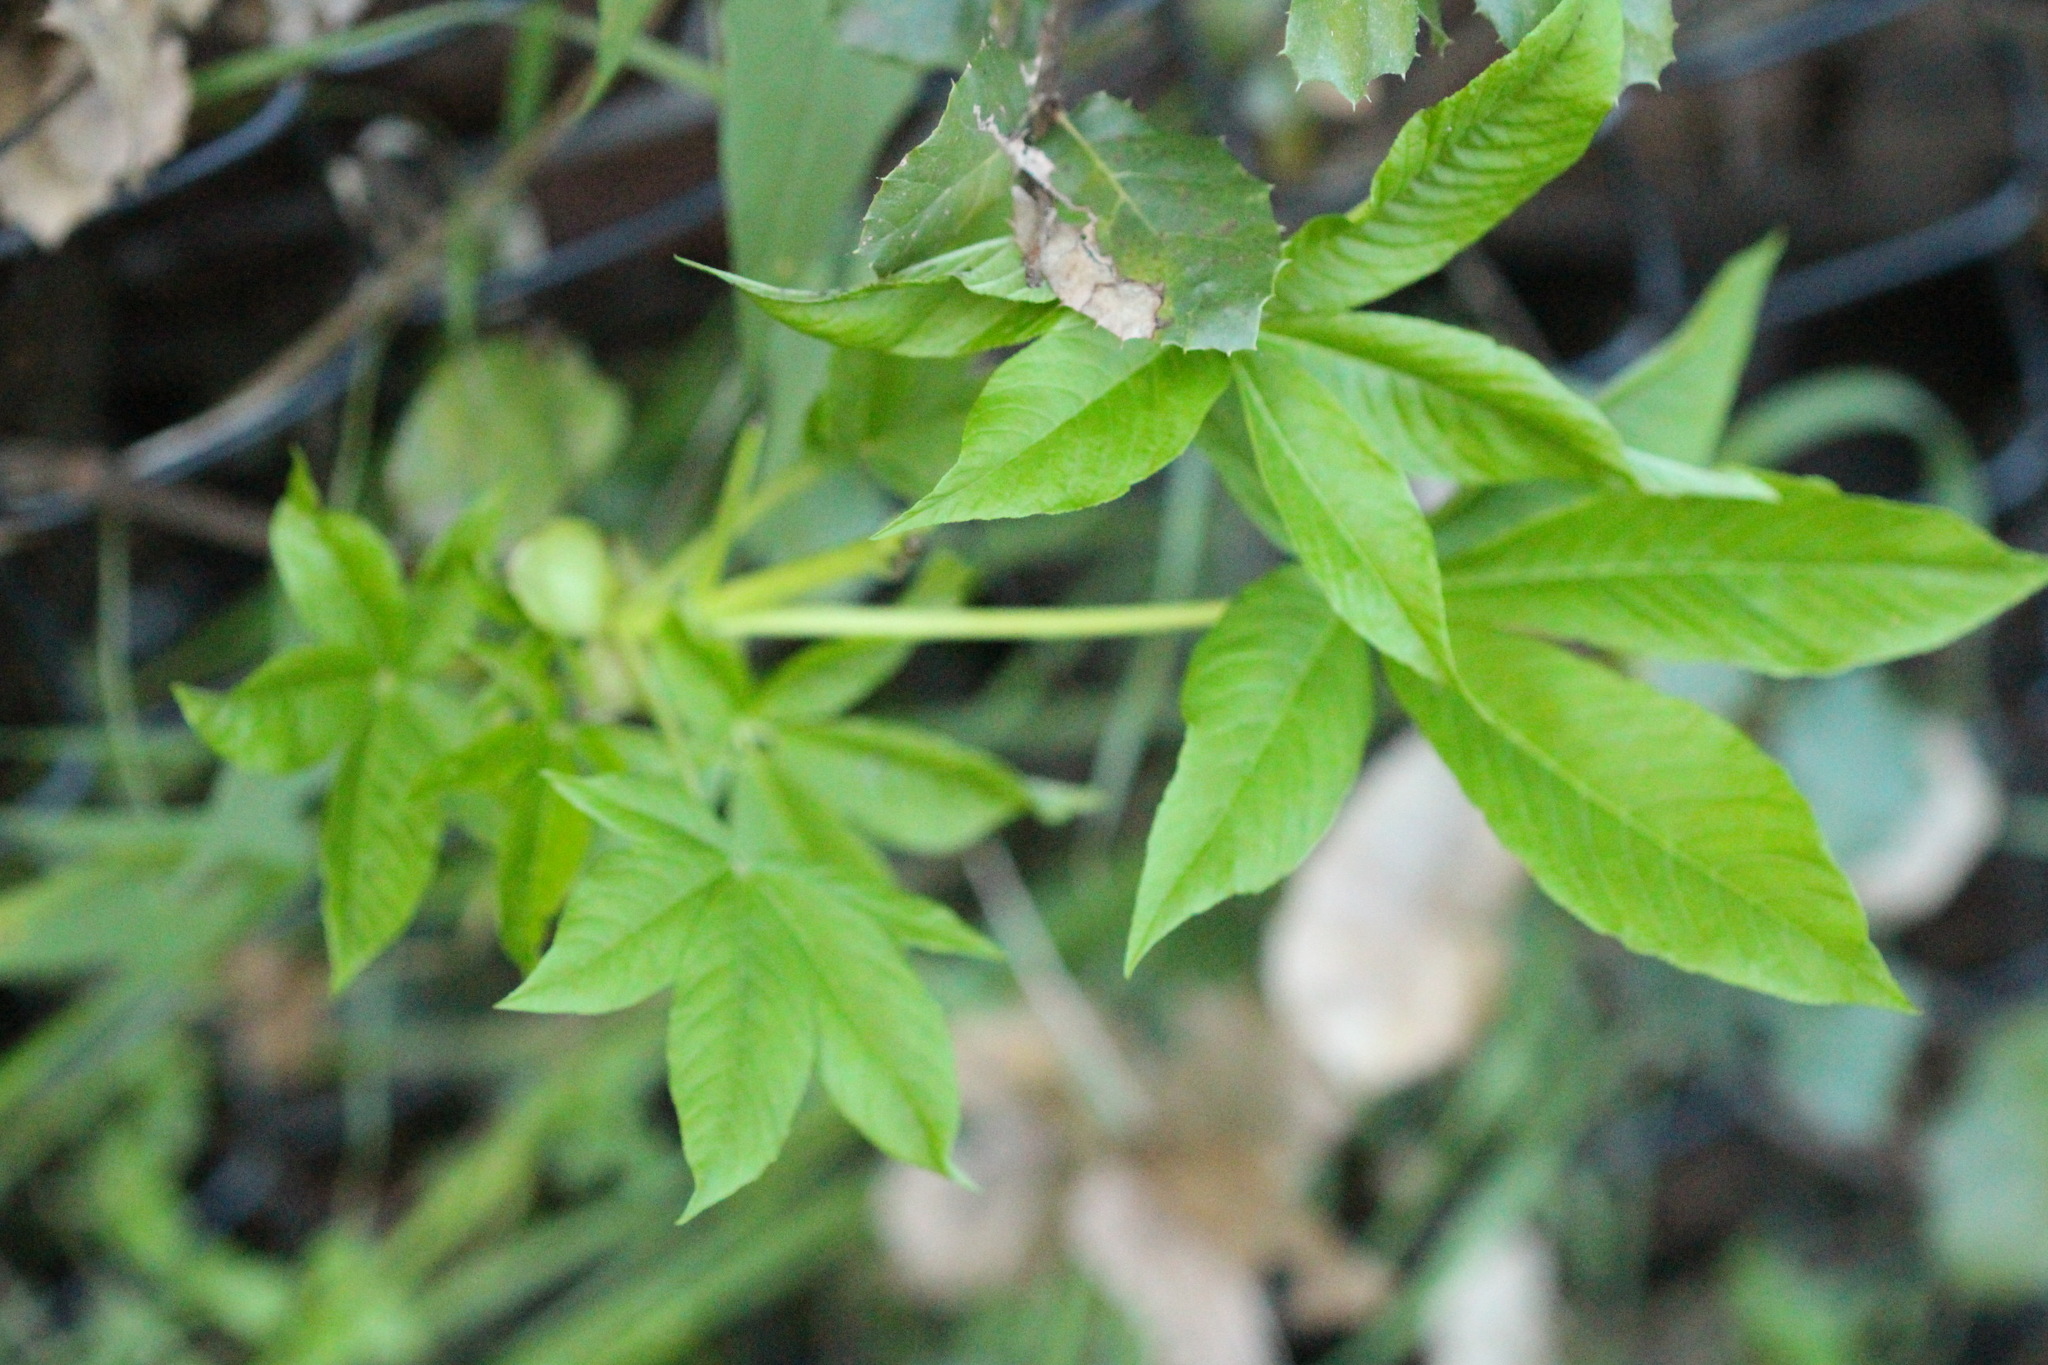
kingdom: Plantae
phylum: Tracheophyta
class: Magnoliopsida
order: Sapindales
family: Sapindaceae
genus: Aesculus
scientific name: Aesculus californica
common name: California buckeye
